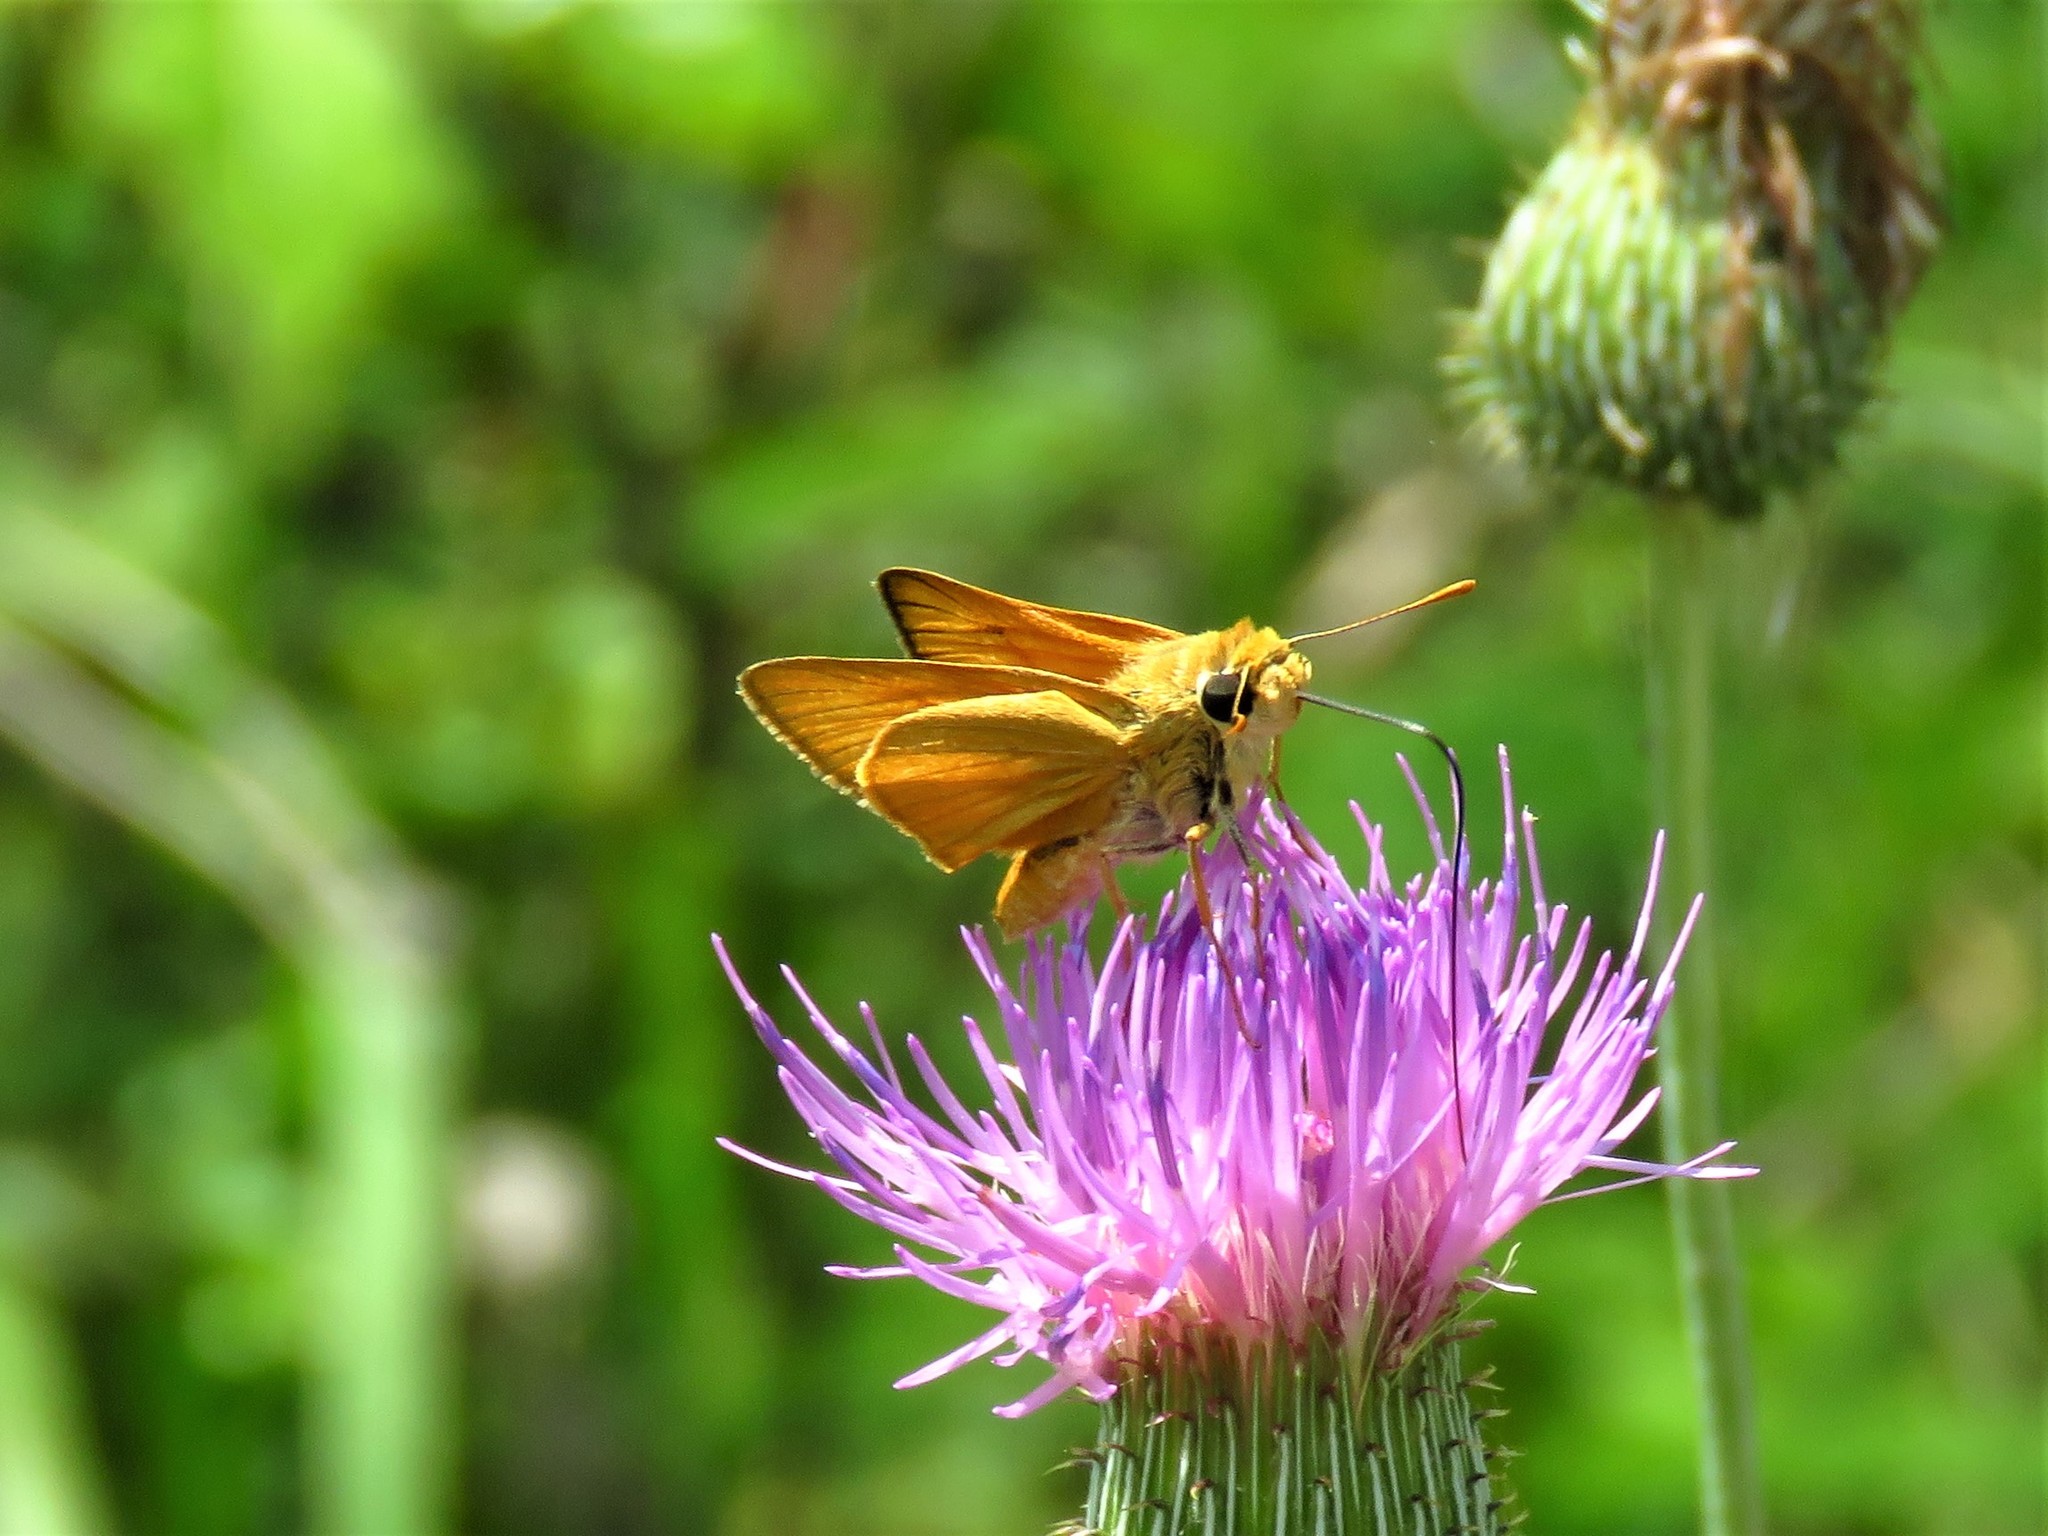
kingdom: Animalia
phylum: Arthropoda
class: Insecta
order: Lepidoptera
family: Hesperiidae
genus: Atrytone
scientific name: Atrytone delaware
